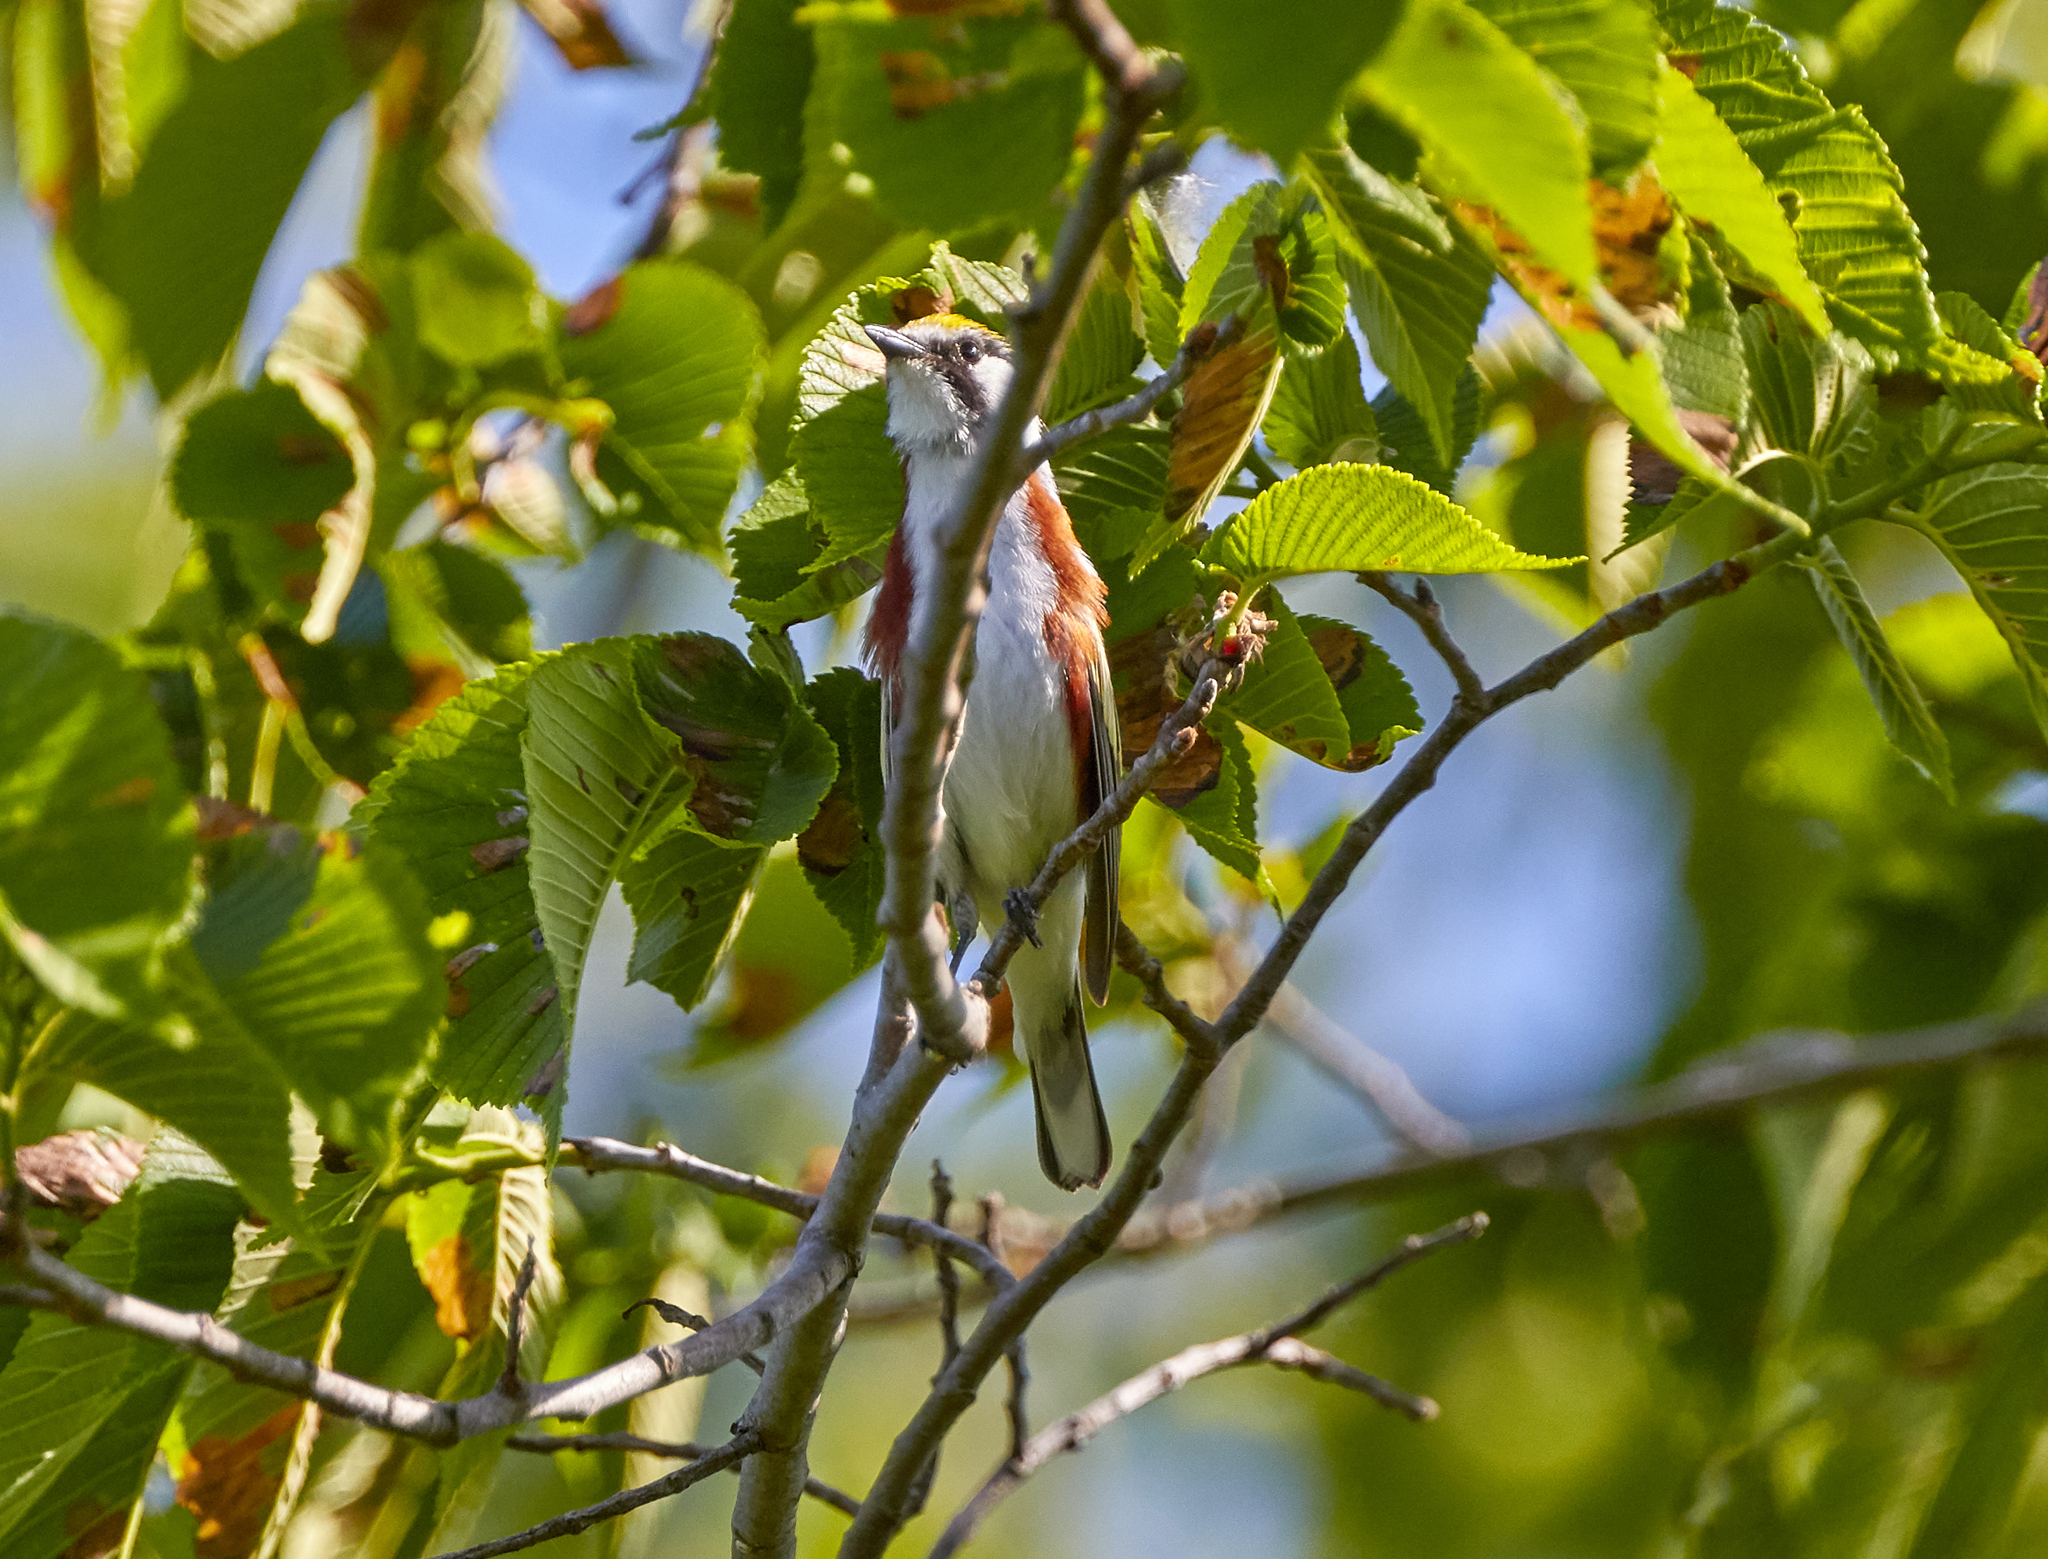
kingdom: Animalia
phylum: Chordata
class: Aves
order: Passeriformes
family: Parulidae
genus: Setophaga
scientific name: Setophaga pensylvanica
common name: Chestnut-sided warbler
